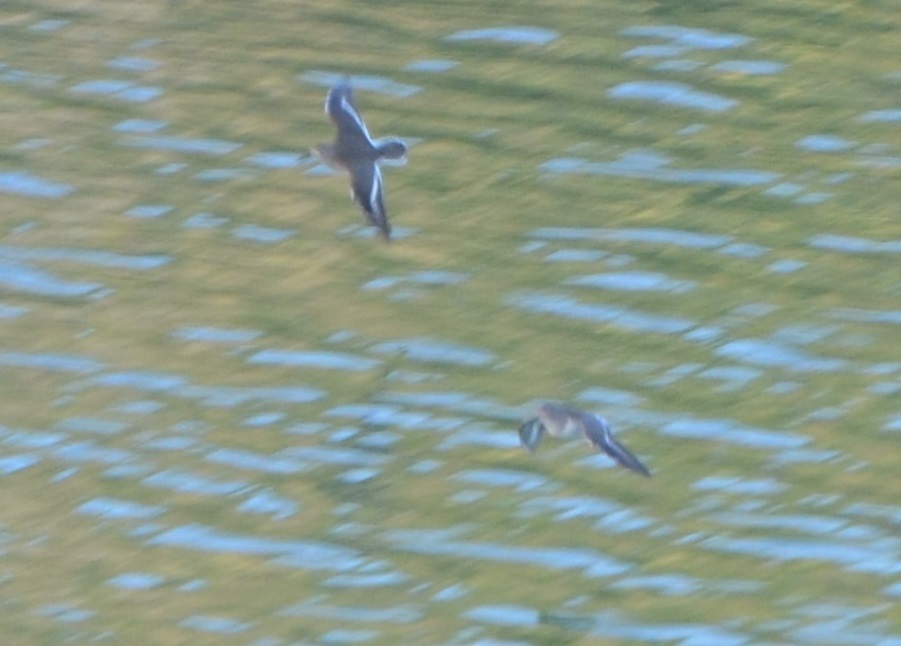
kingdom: Animalia
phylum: Chordata
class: Aves
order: Charadriiformes
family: Scolopacidae
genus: Actitis
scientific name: Actitis hypoleucos
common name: Common sandpiper
